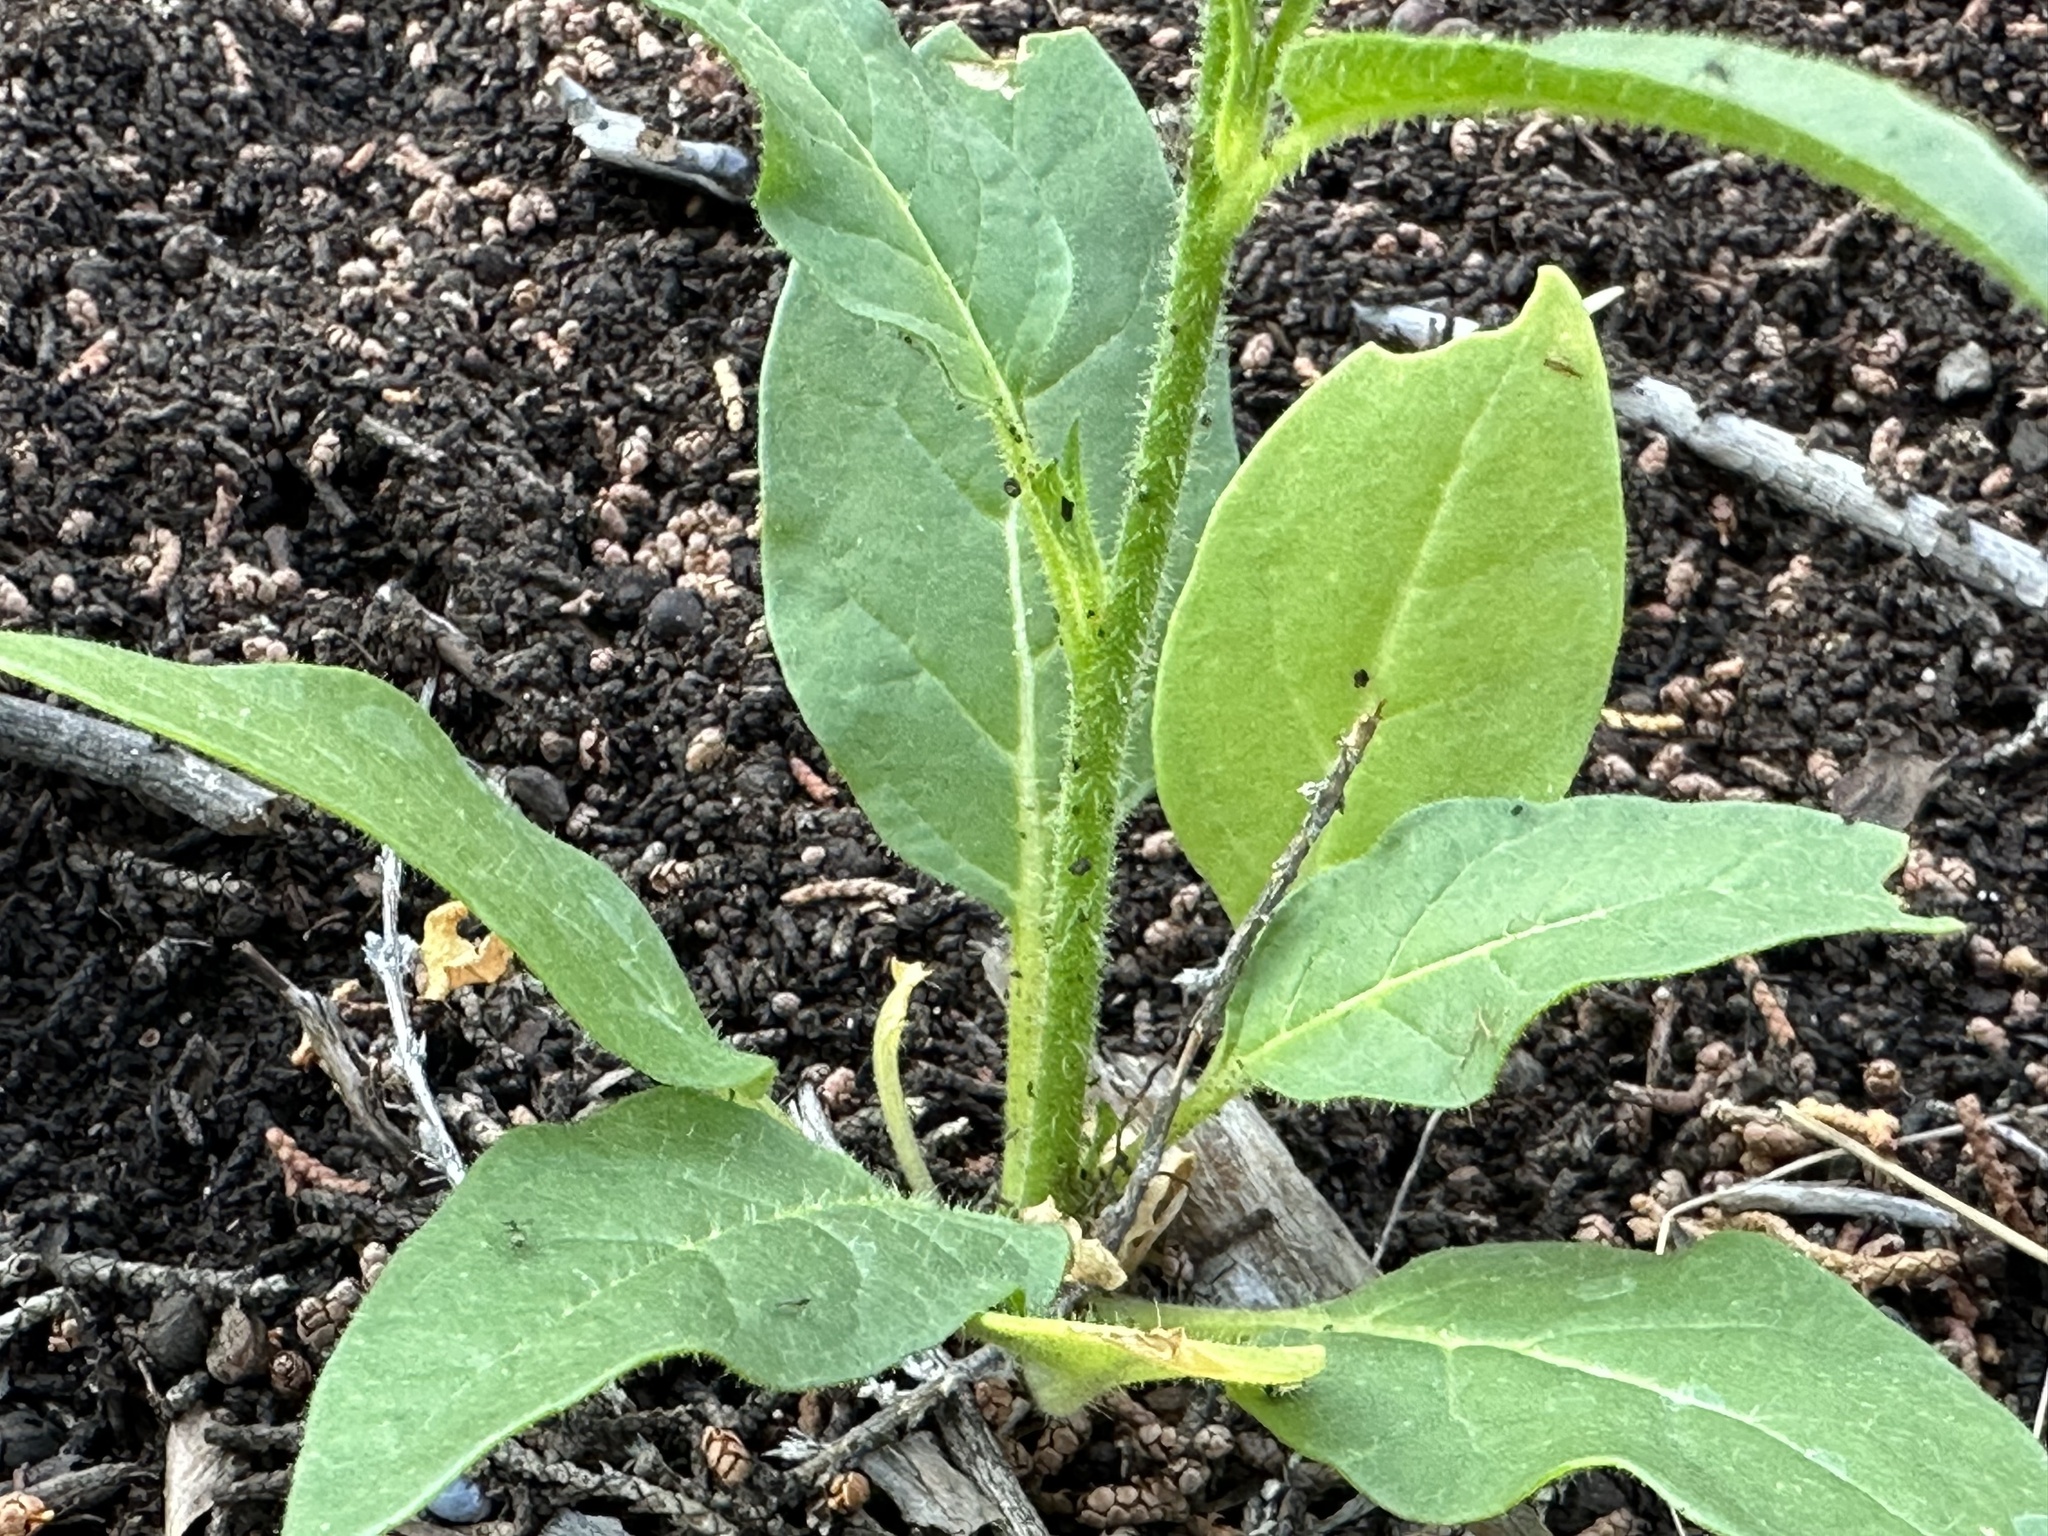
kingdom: Plantae
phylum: Tracheophyta
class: Magnoliopsida
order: Solanales
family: Solanaceae
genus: Nicotiana
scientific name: Nicotiana attenuata
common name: Coyote tobacco
